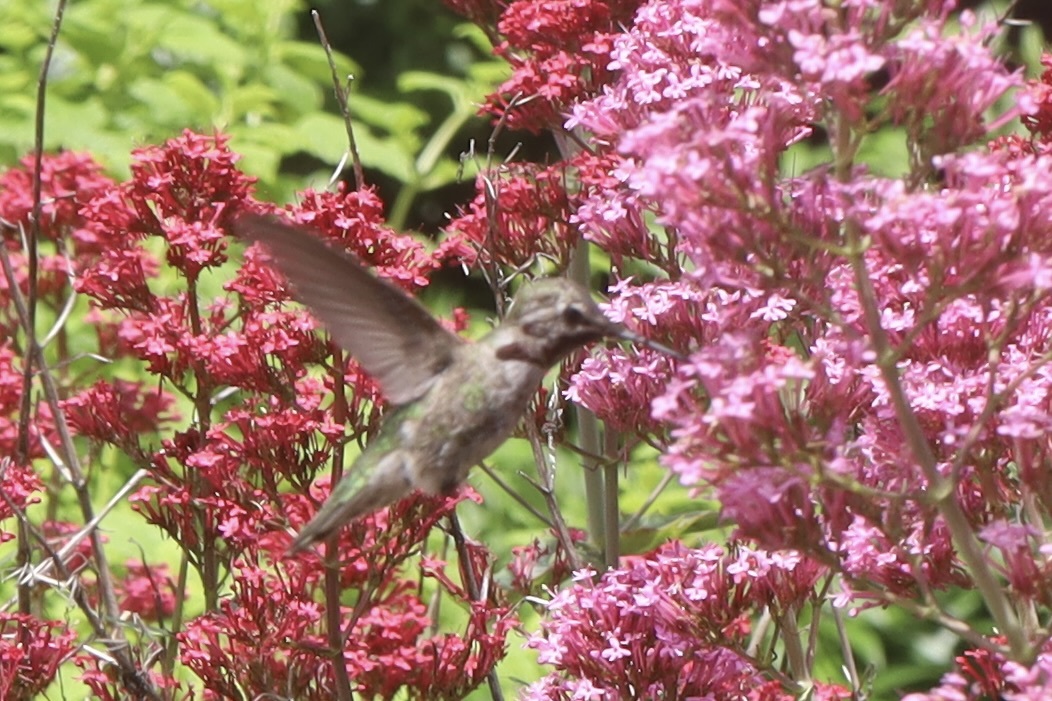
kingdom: Animalia
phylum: Chordata
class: Aves
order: Apodiformes
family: Trochilidae
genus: Calypte
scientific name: Calypte anna
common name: Anna's hummingbird
